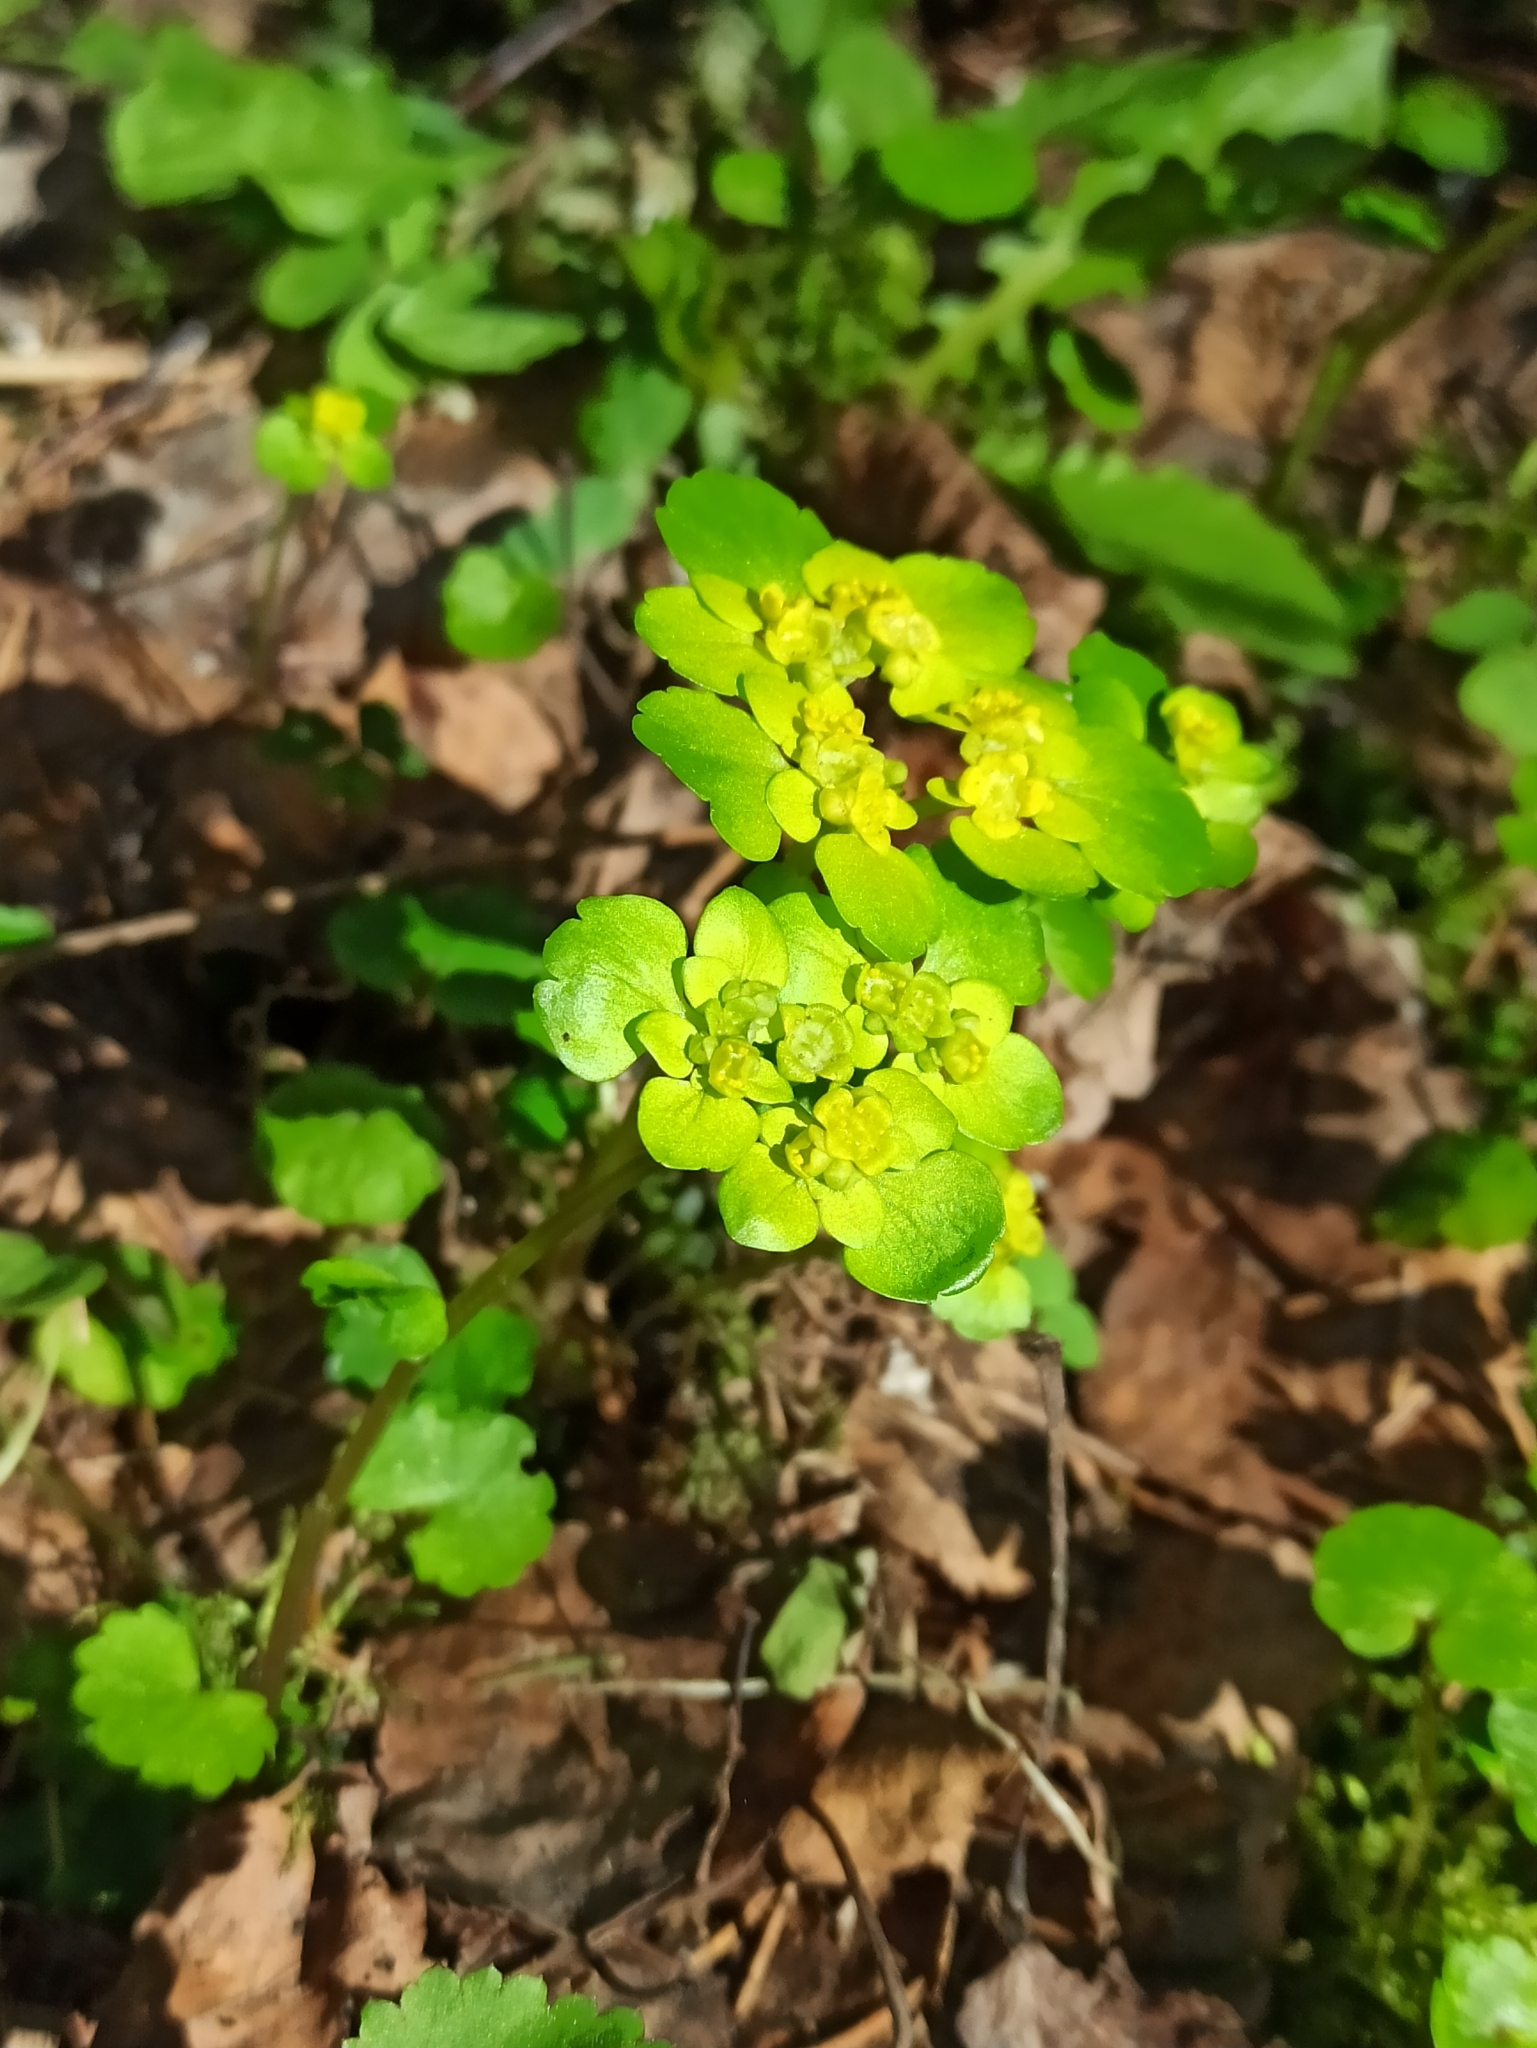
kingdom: Plantae
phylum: Tracheophyta
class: Magnoliopsida
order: Saxifragales
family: Saxifragaceae
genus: Chrysosplenium
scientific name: Chrysosplenium alternifolium
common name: Alternate-leaved golden-saxifrage
